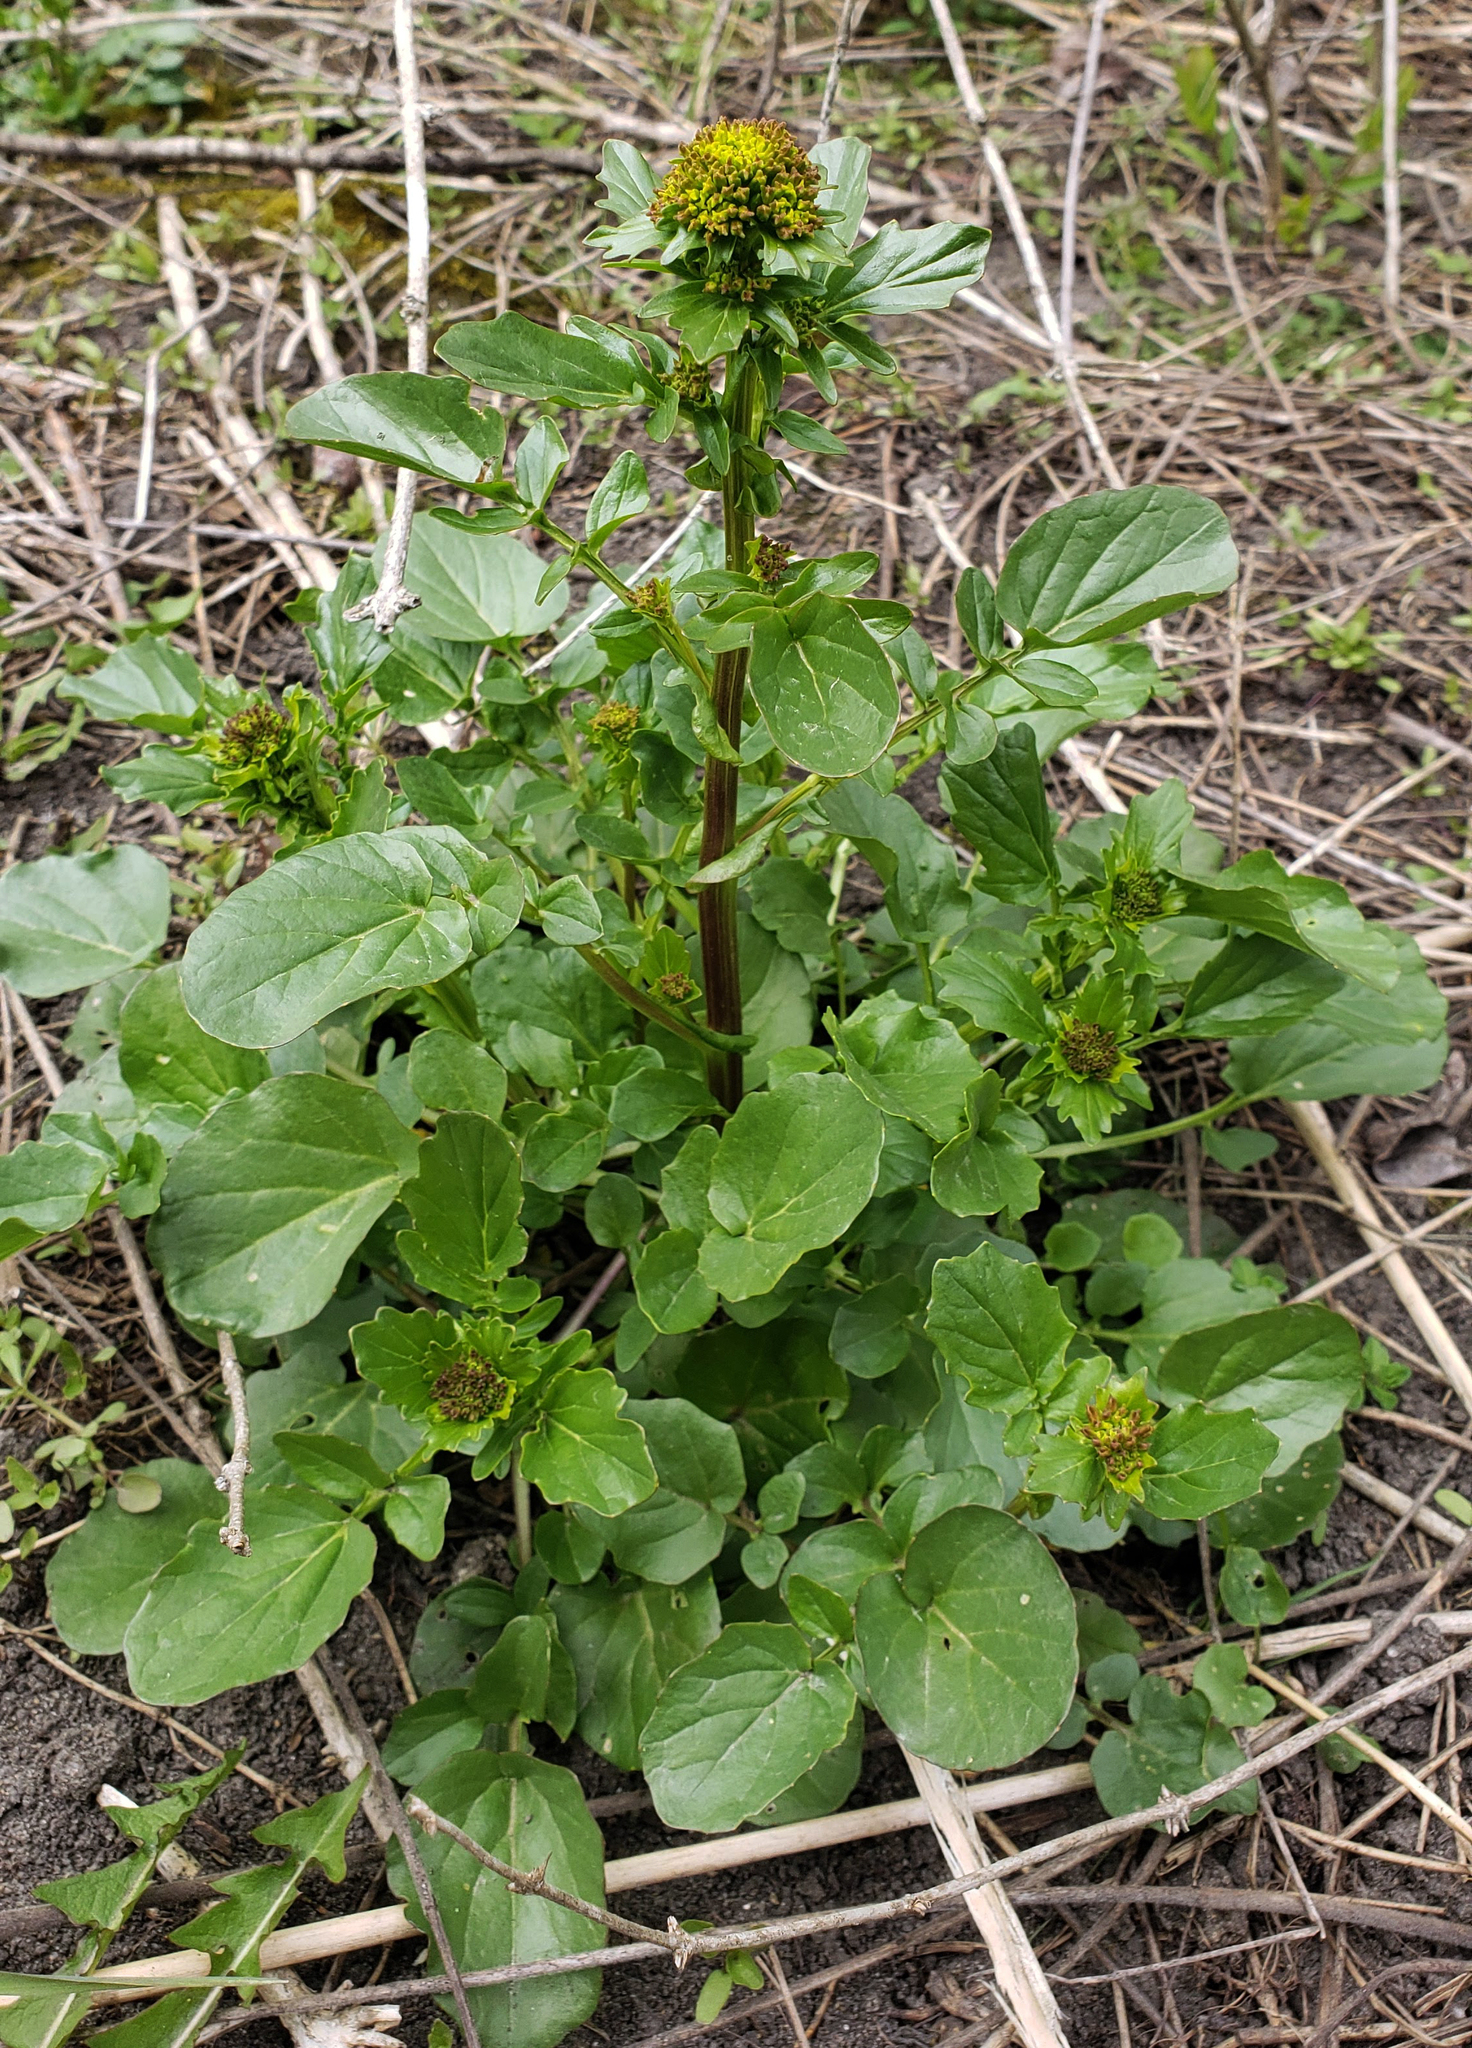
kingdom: Plantae
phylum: Tracheophyta
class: Magnoliopsida
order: Brassicales
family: Brassicaceae
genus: Barbarea
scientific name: Barbarea vulgaris
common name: Cressy-greens
